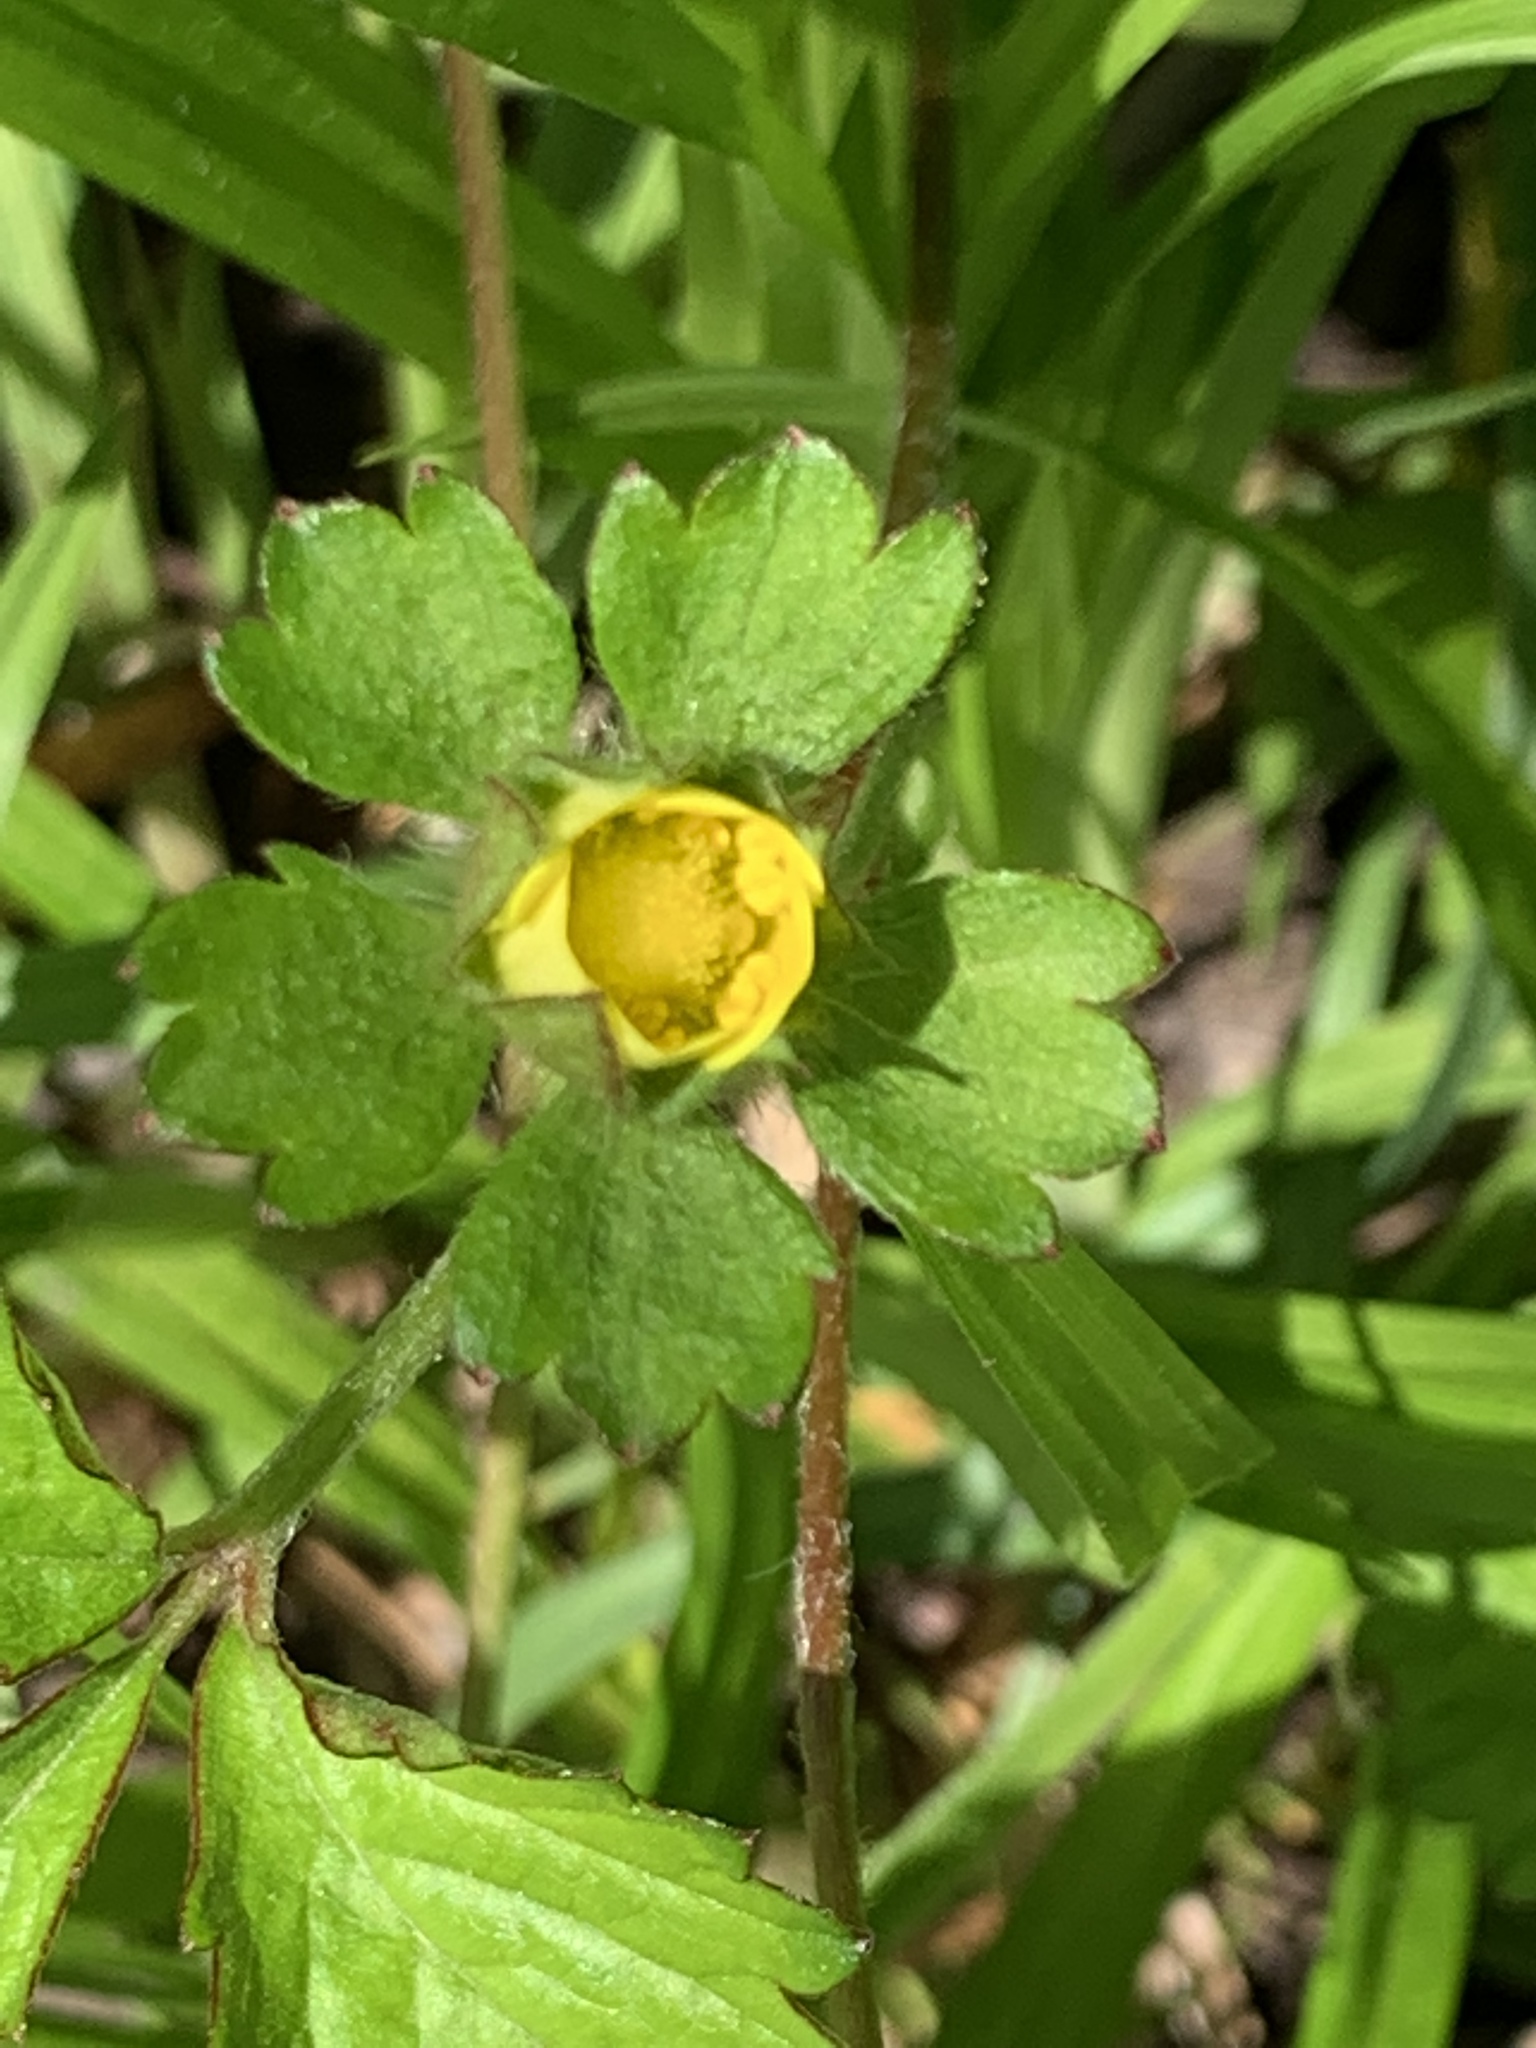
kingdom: Plantae
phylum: Tracheophyta
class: Magnoliopsida
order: Rosales
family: Rosaceae
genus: Potentilla
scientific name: Potentilla indica
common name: Yellow-flowered strawberry
